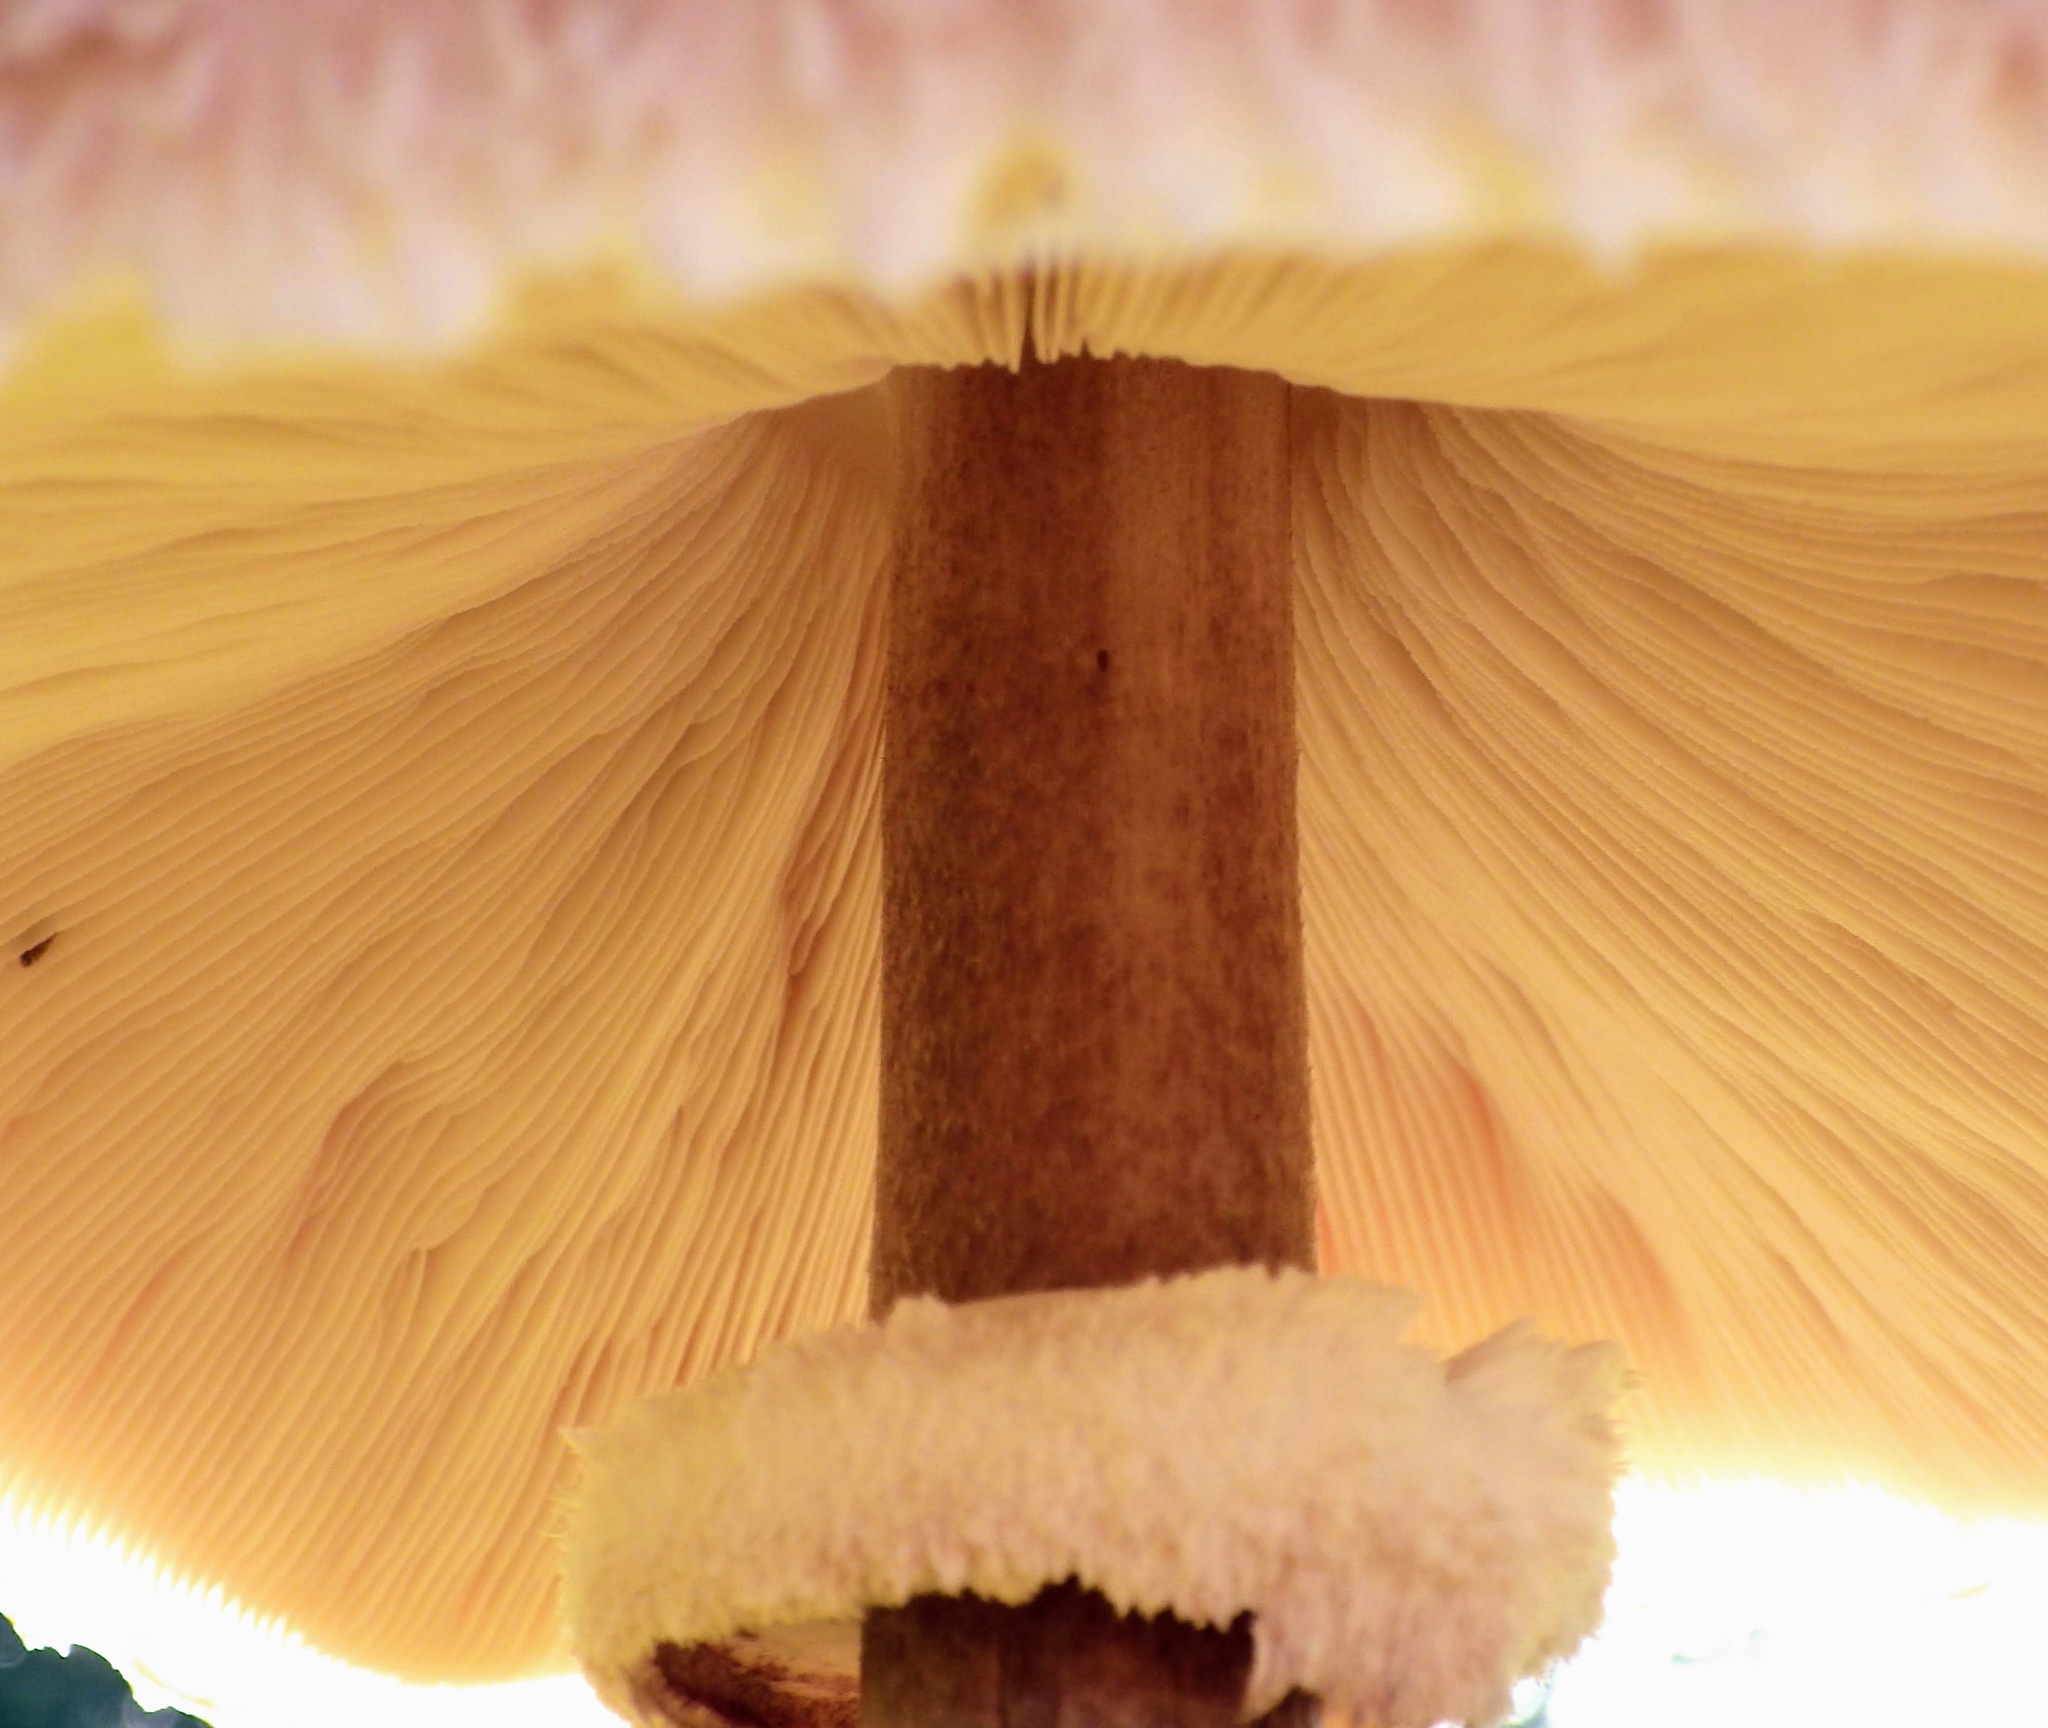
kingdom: Fungi
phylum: Basidiomycota
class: Agaricomycetes
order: Agaricales
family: Agaricaceae
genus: Macrolepiota
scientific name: Macrolepiota procera
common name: Parasol
